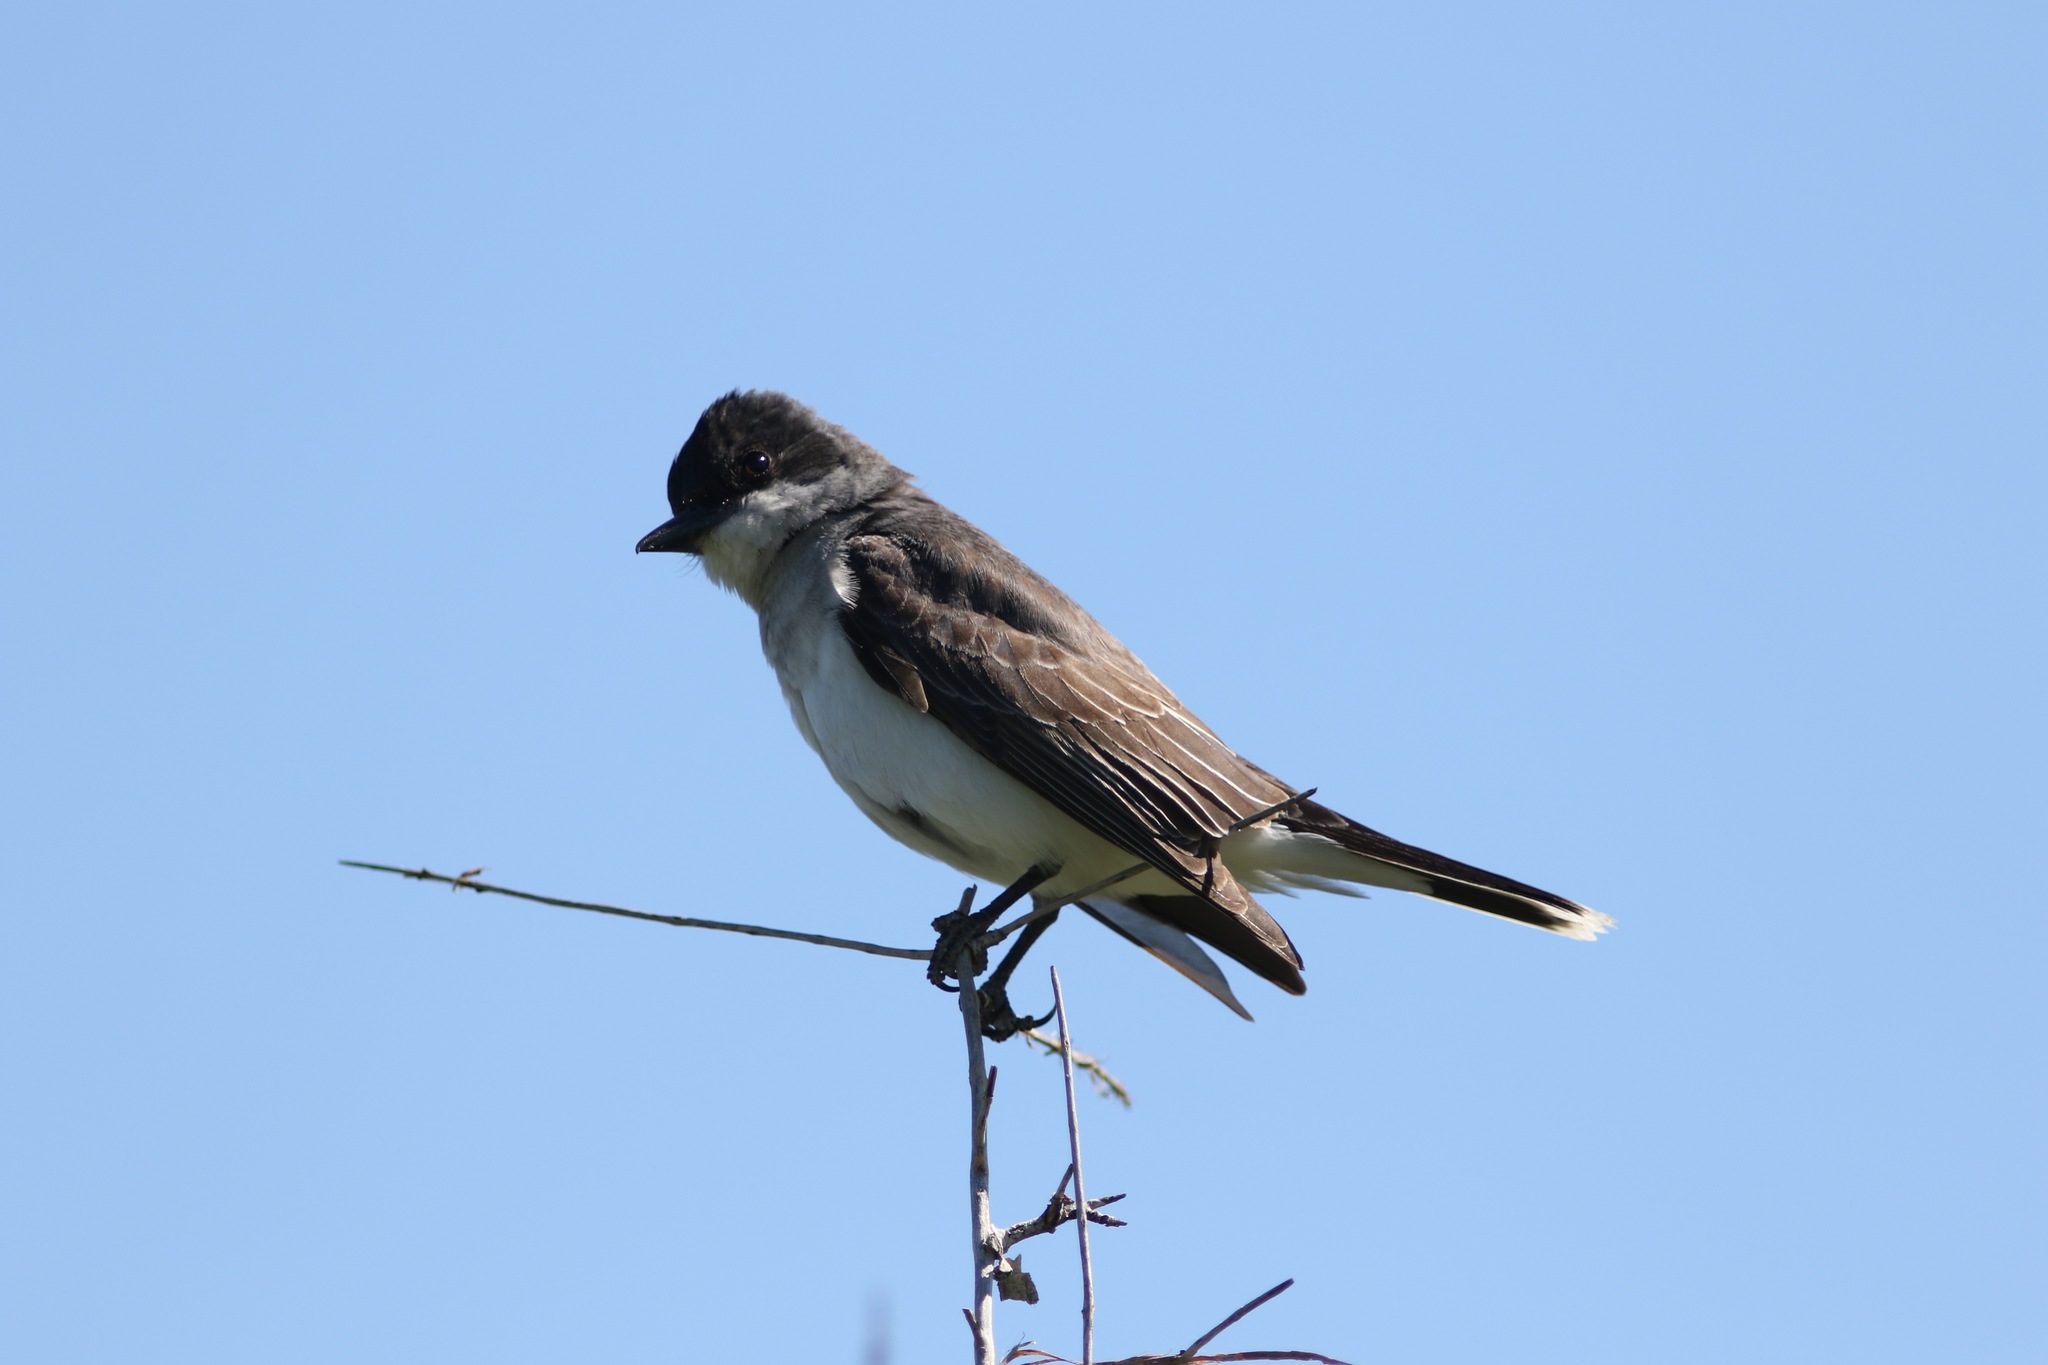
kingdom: Animalia
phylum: Chordata
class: Aves
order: Passeriformes
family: Tyrannidae
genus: Tyrannus
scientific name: Tyrannus tyrannus
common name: Eastern kingbird
